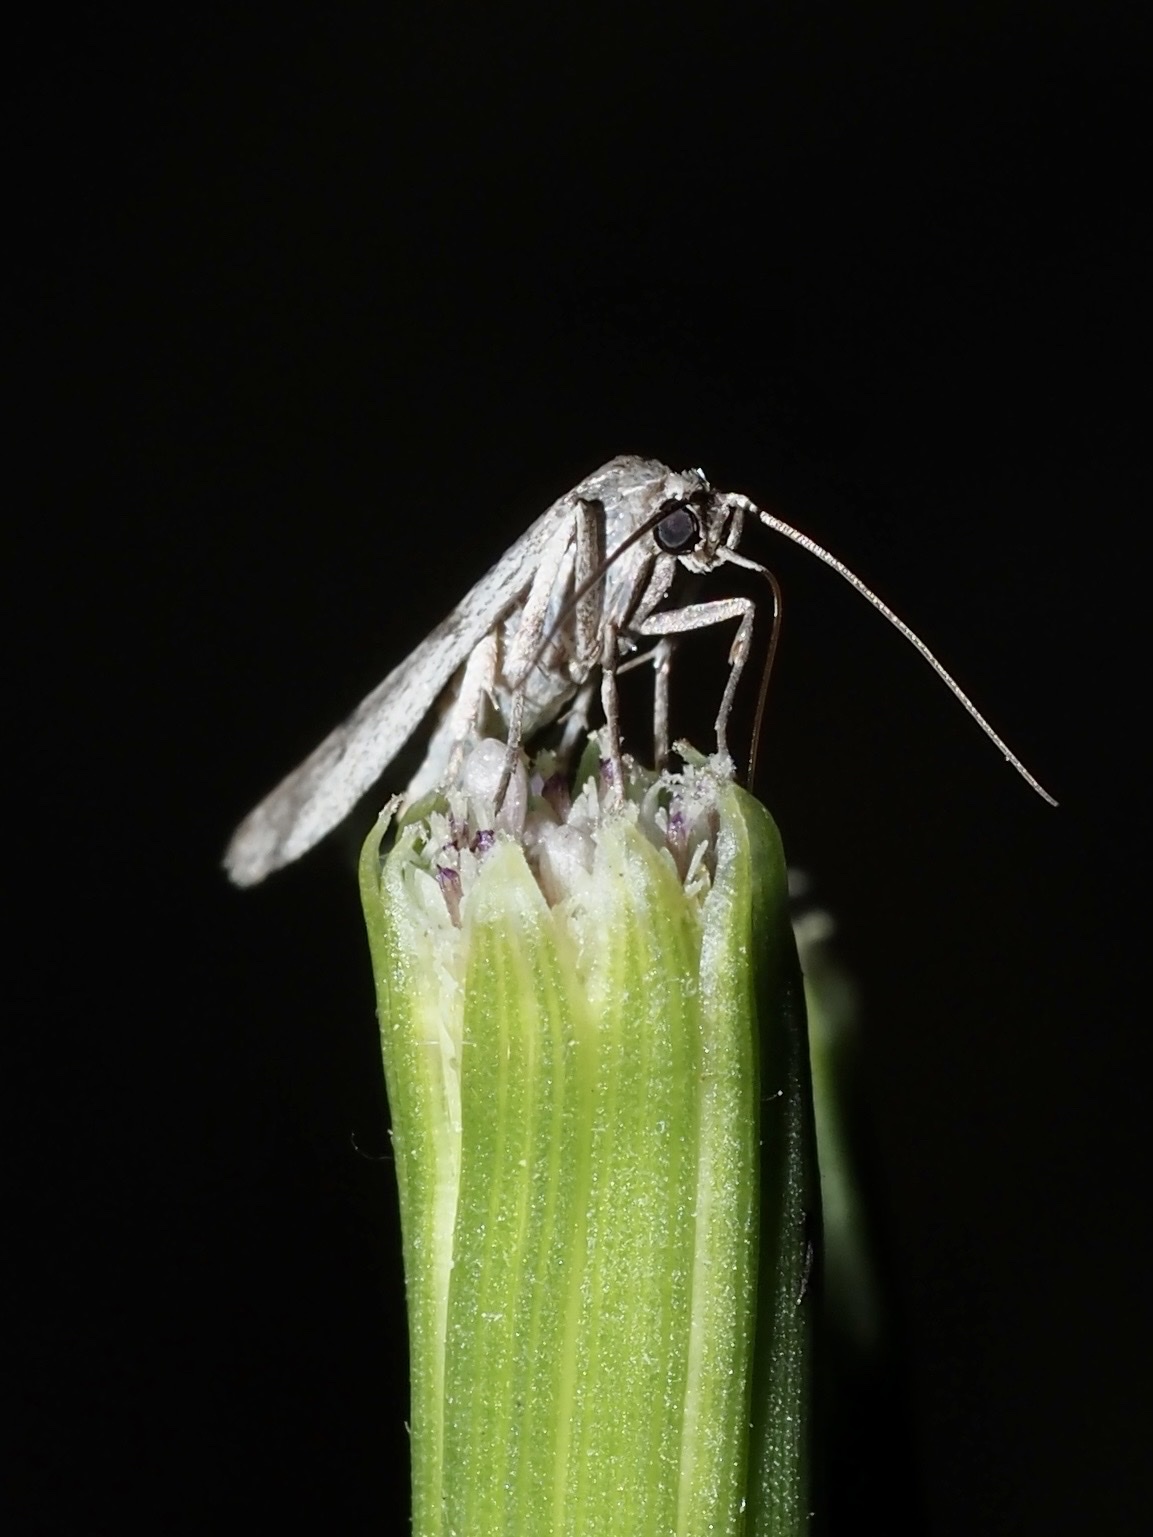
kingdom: Animalia
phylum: Arthropoda
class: Insecta
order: Lepidoptera
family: Pyralidae
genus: Phycitodes
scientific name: Phycitodes mucidellus
